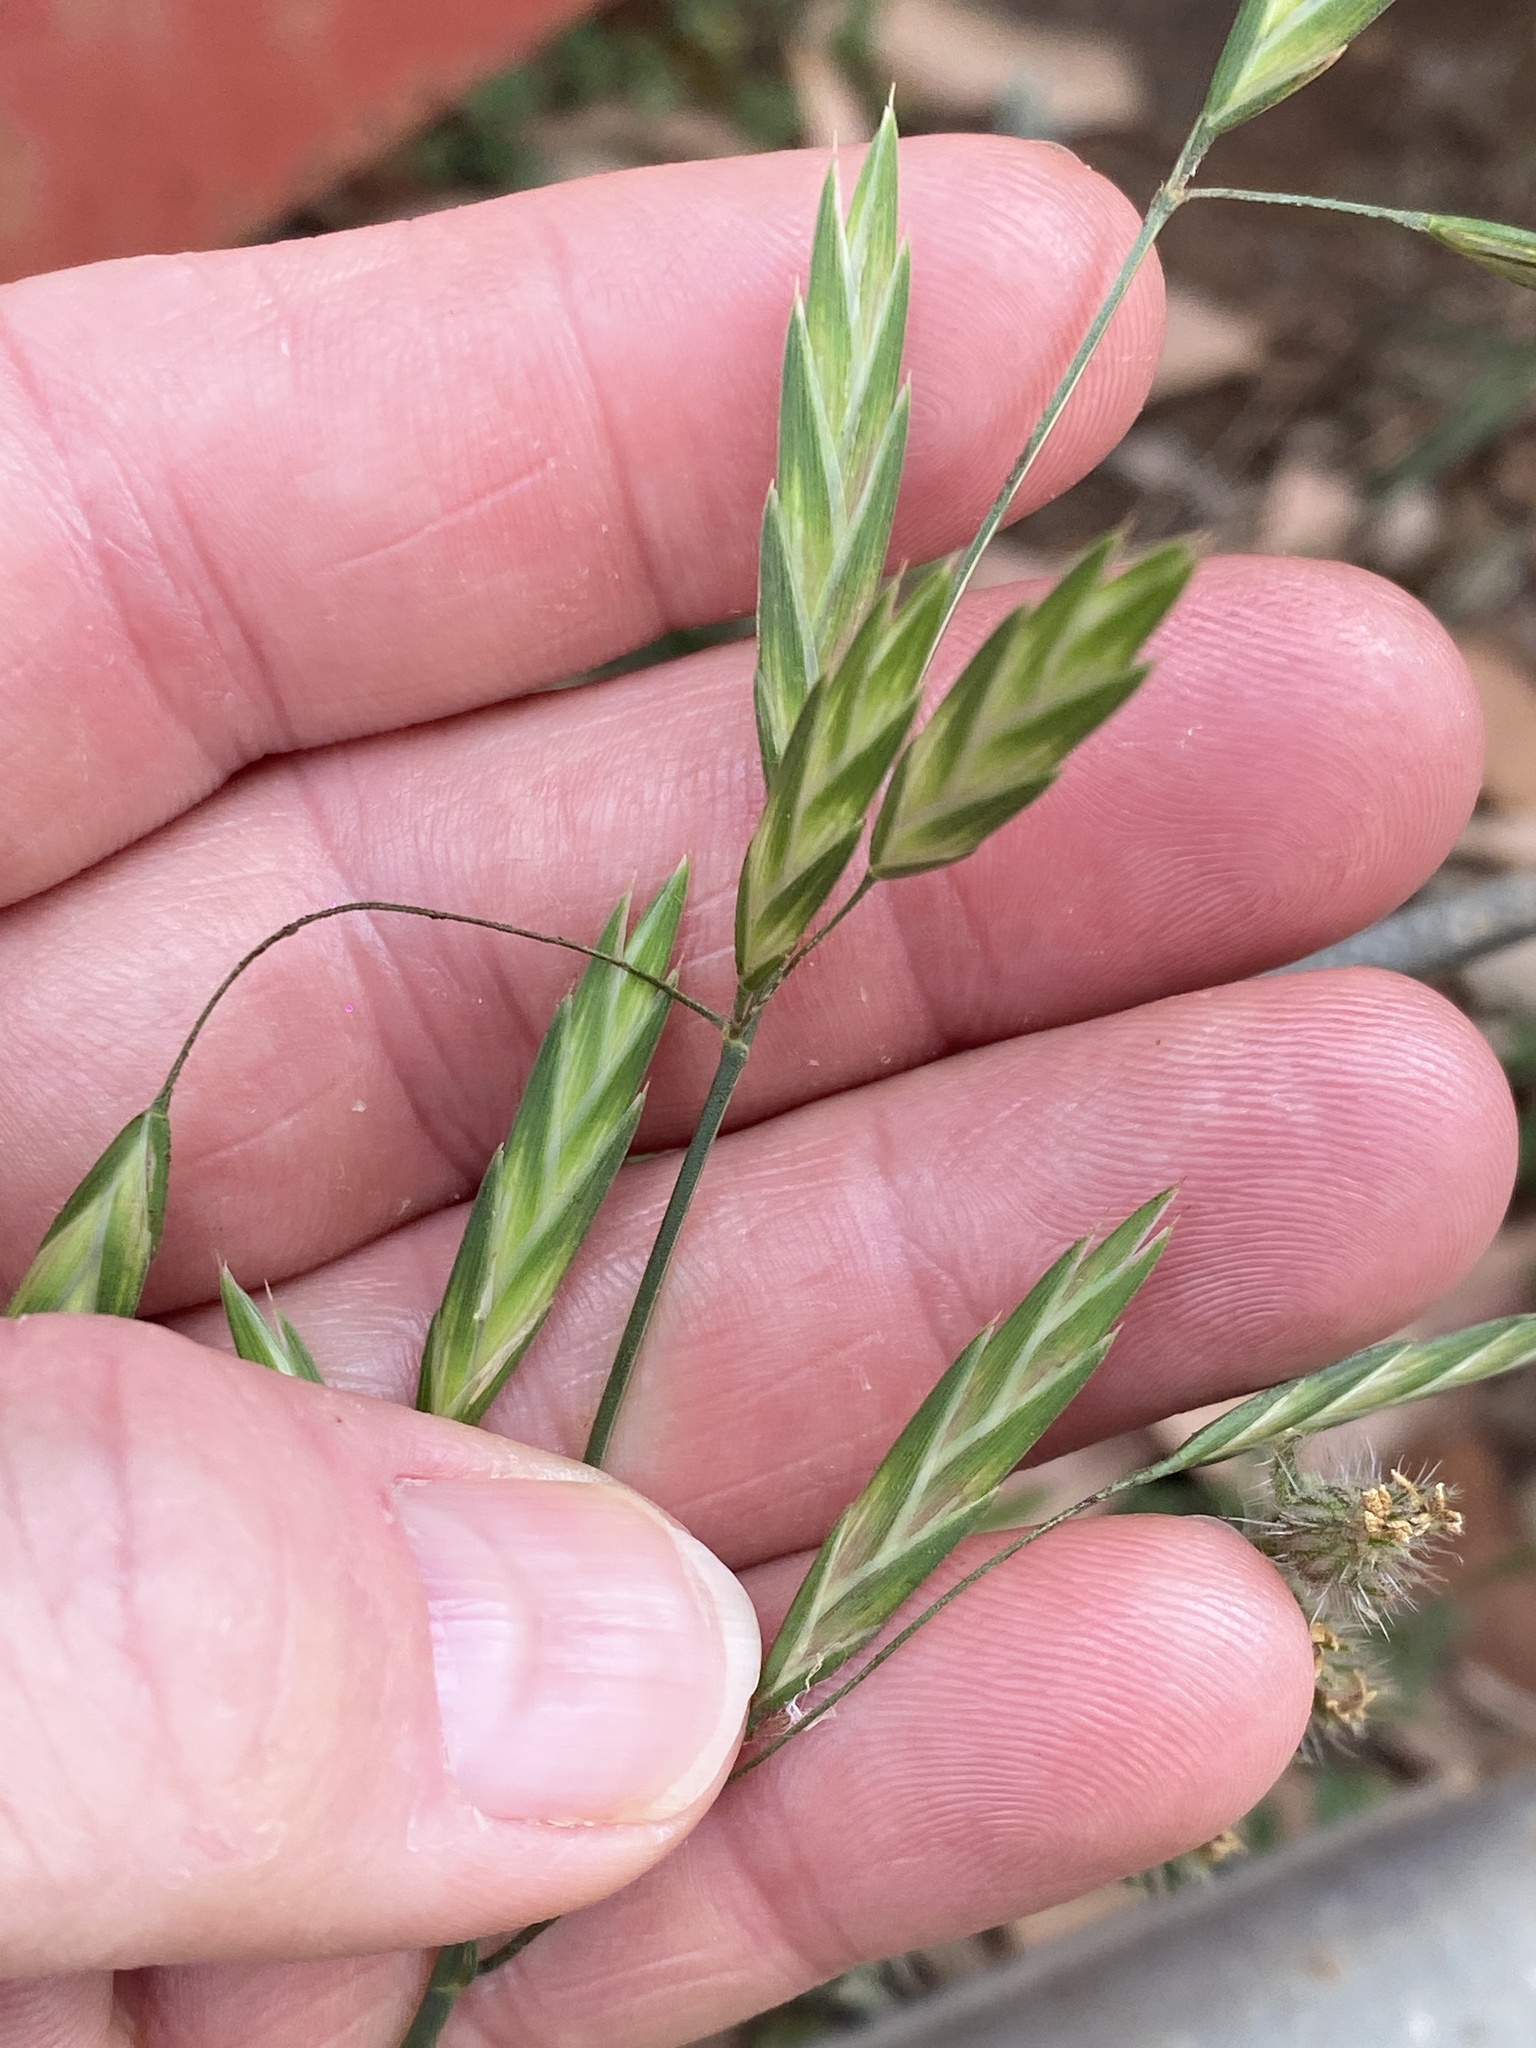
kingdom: Plantae
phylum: Tracheophyta
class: Liliopsida
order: Poales
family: Poaceae
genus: Bromus
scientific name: Bromus catharticus
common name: Rescuegrass
